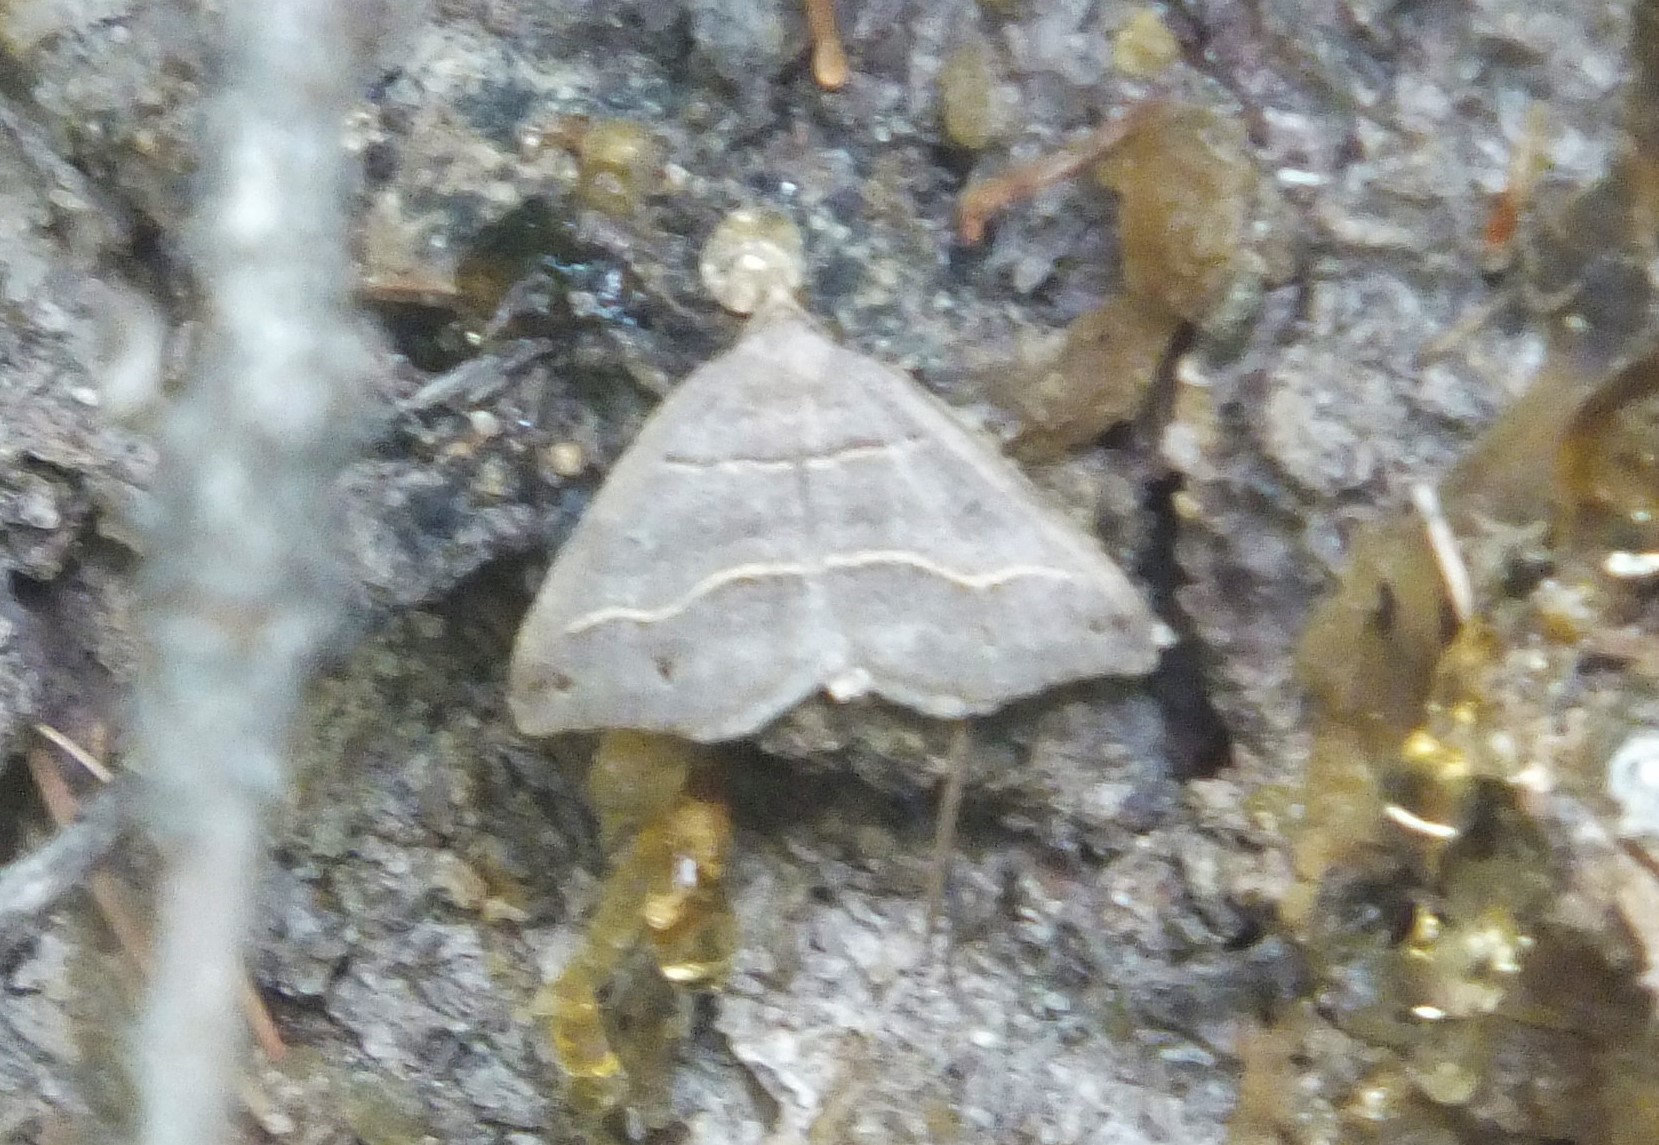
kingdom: Animalia
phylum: Arthropoda
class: Insecta
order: Lepidoptera
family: Geometridae
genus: Macaria
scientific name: Macaria lorquinaria
